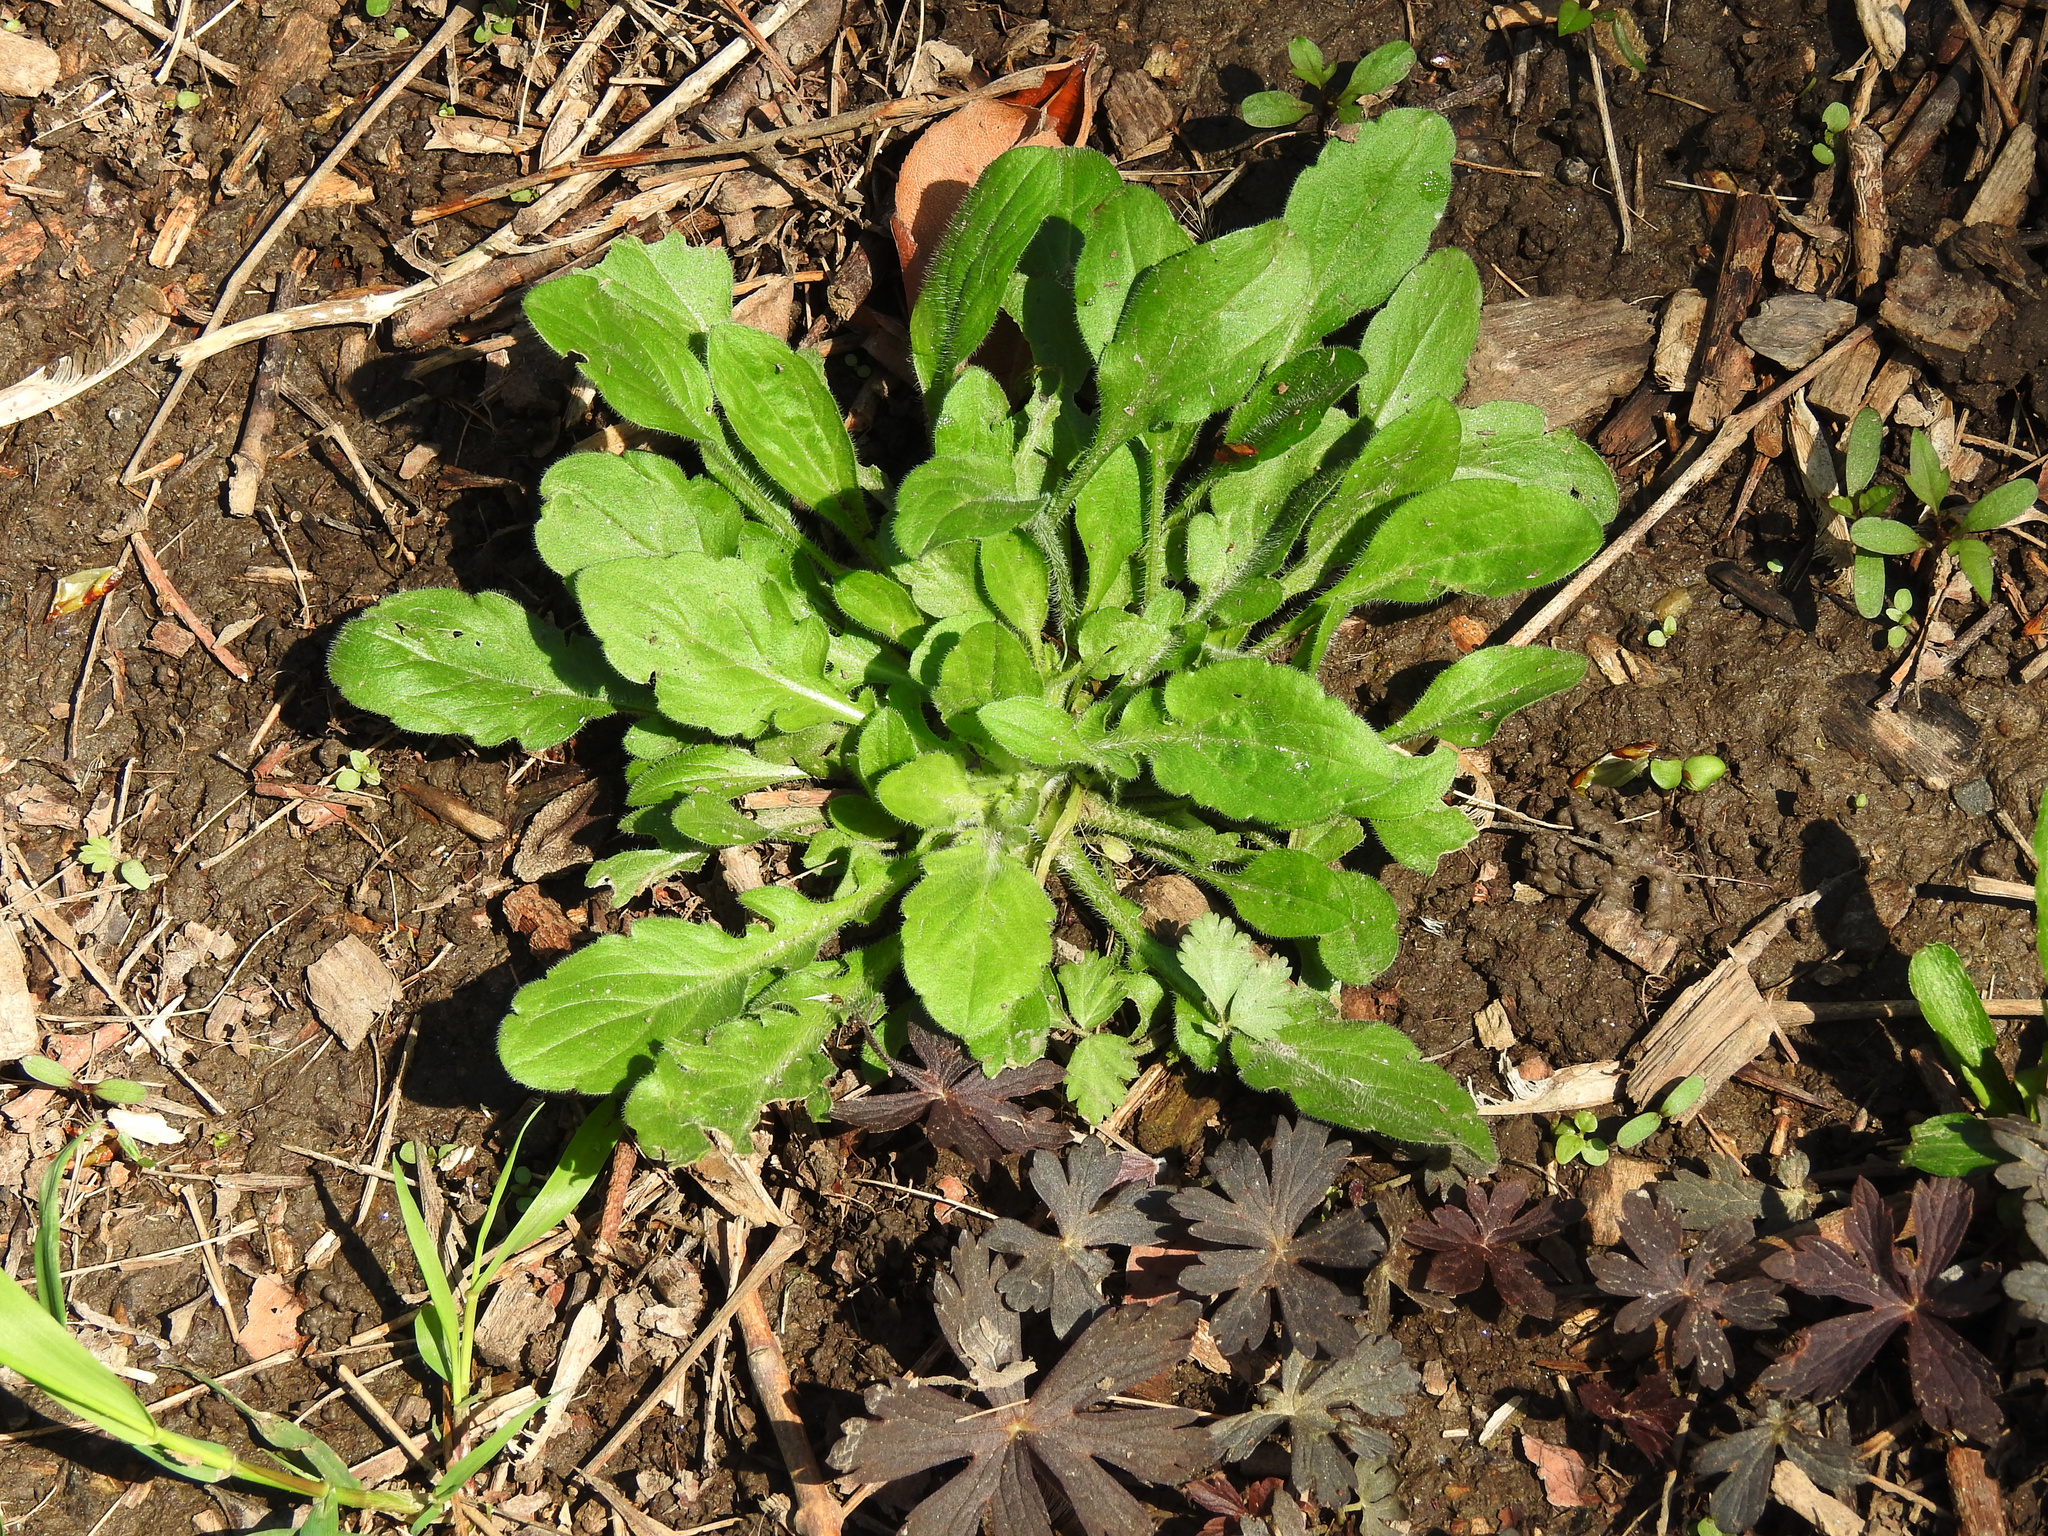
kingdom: Plantae
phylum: Tracheophyta
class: Magnoliopsida
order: Asterales
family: Asteraceae
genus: Erigeron
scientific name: Erigeron philadelphicus
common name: Robin's-plantain
